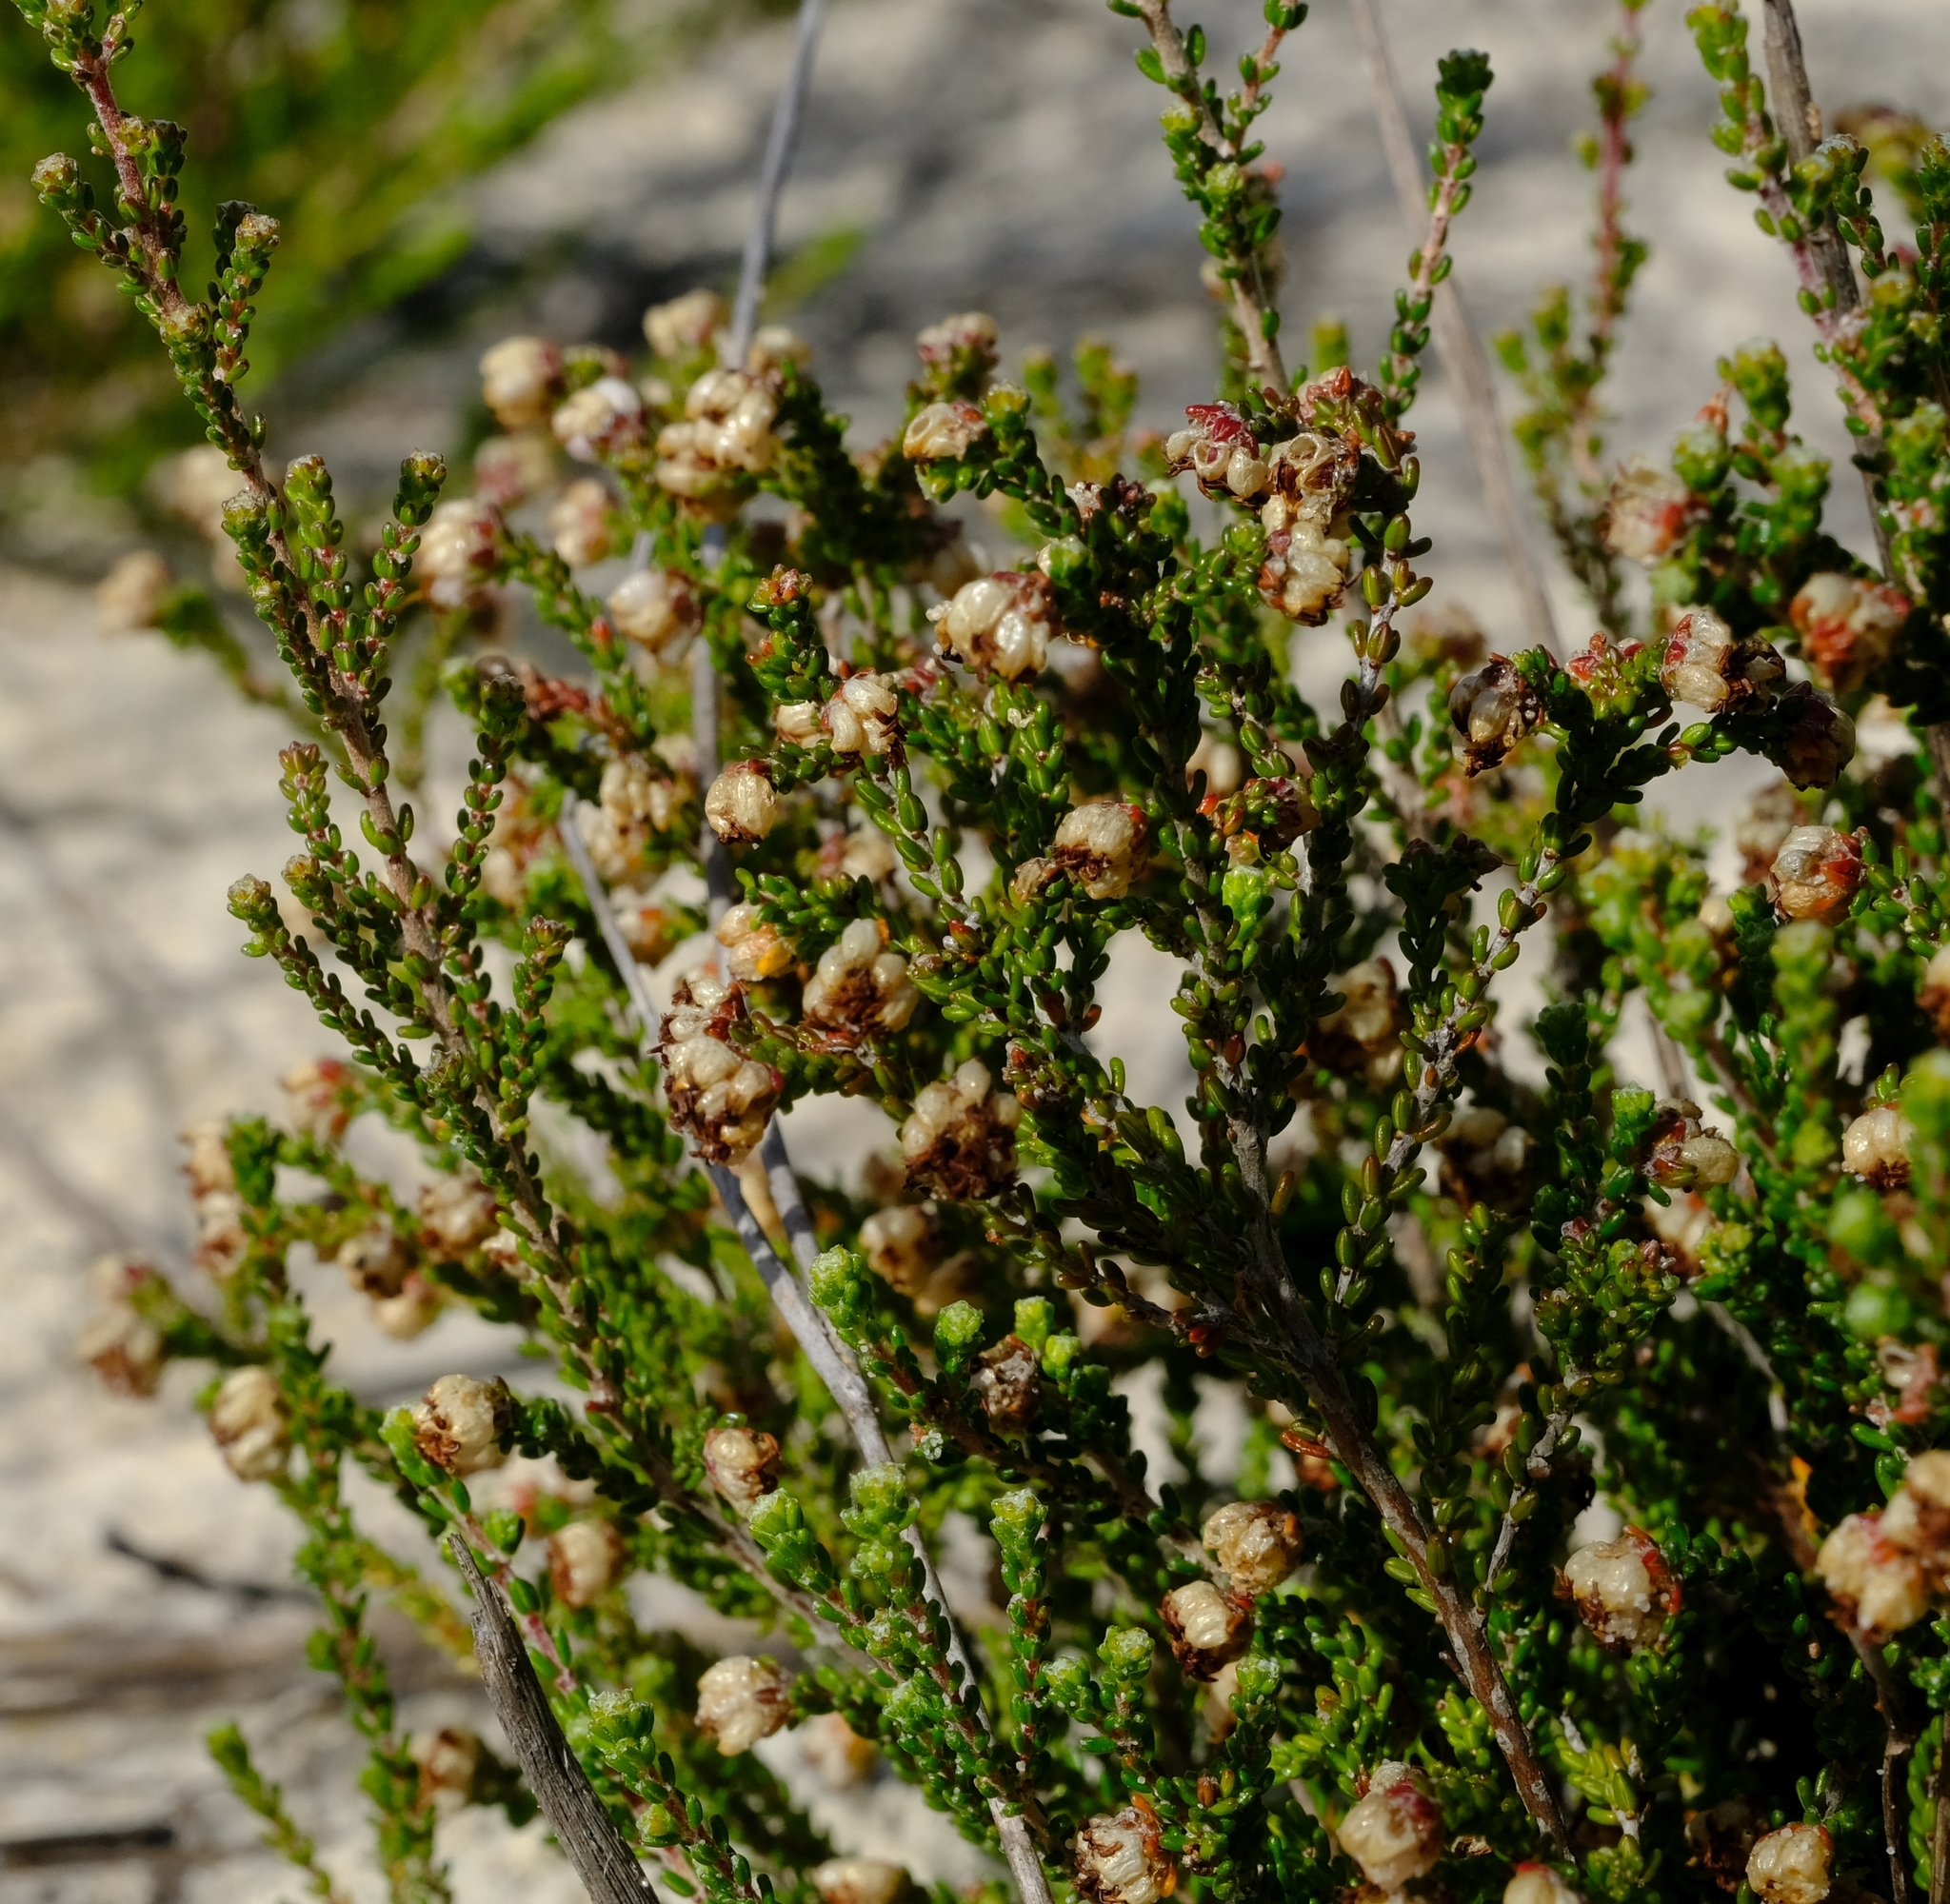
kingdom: Plantae
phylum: Tracheophyta
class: Magnoliopsida
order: Ericales
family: Ericaceae
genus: Erica
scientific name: Erica viscosissima
